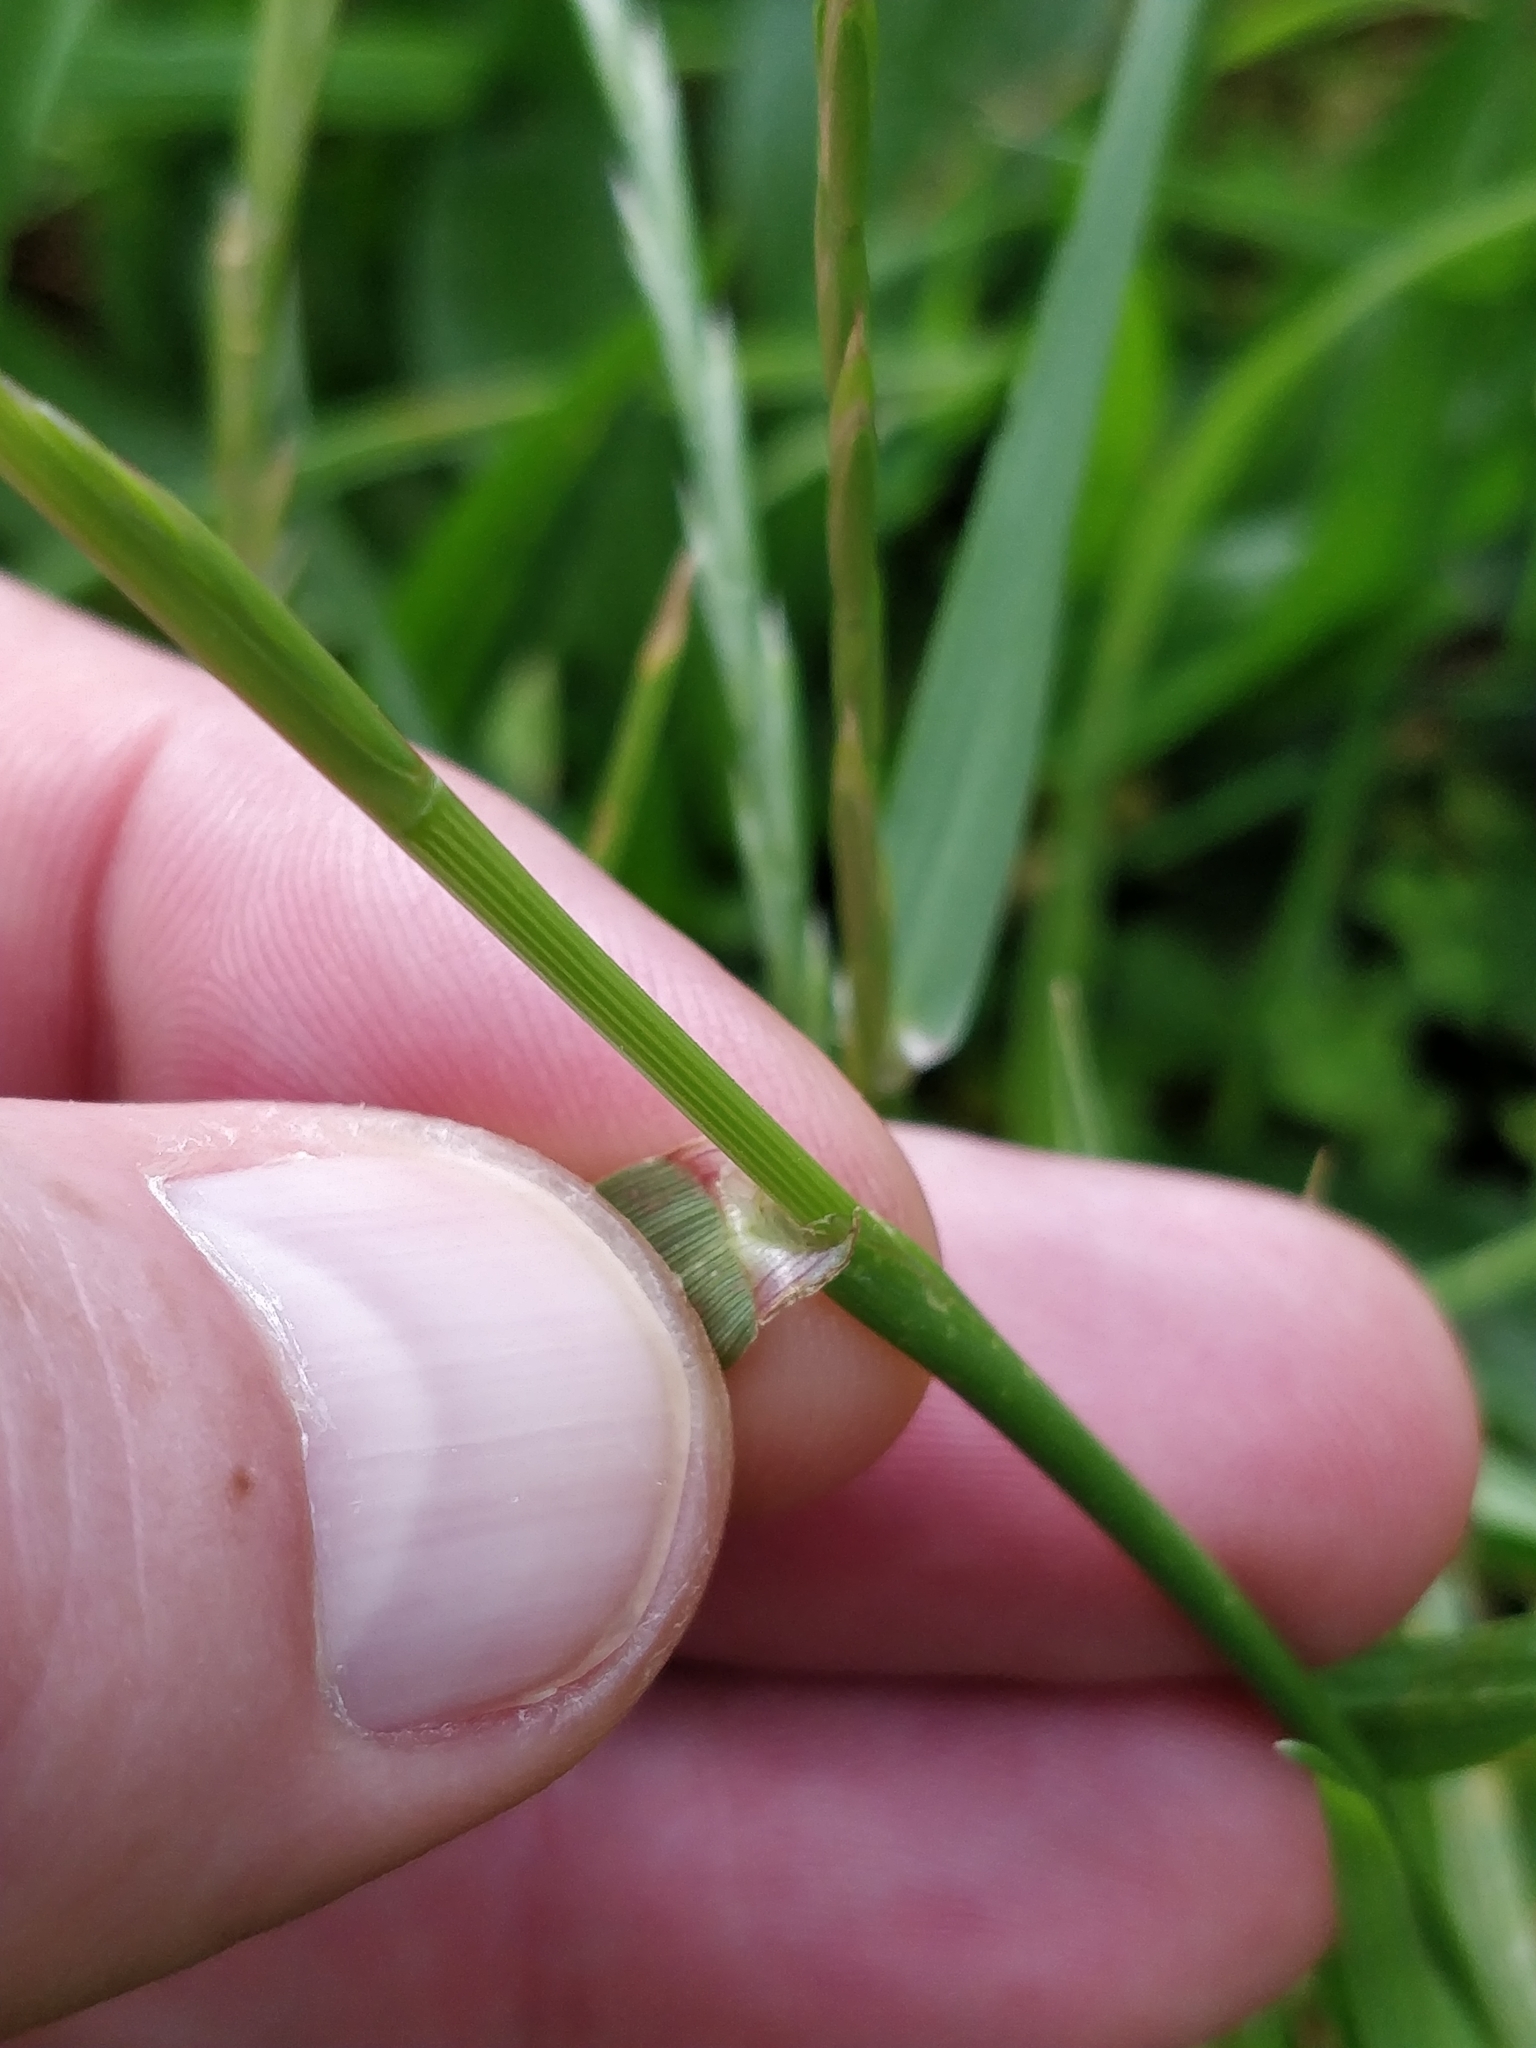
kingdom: Plantae
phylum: Tracheophyta
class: Liliopsida
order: Poales
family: Poaceae
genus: Lolium
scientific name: Lolium
